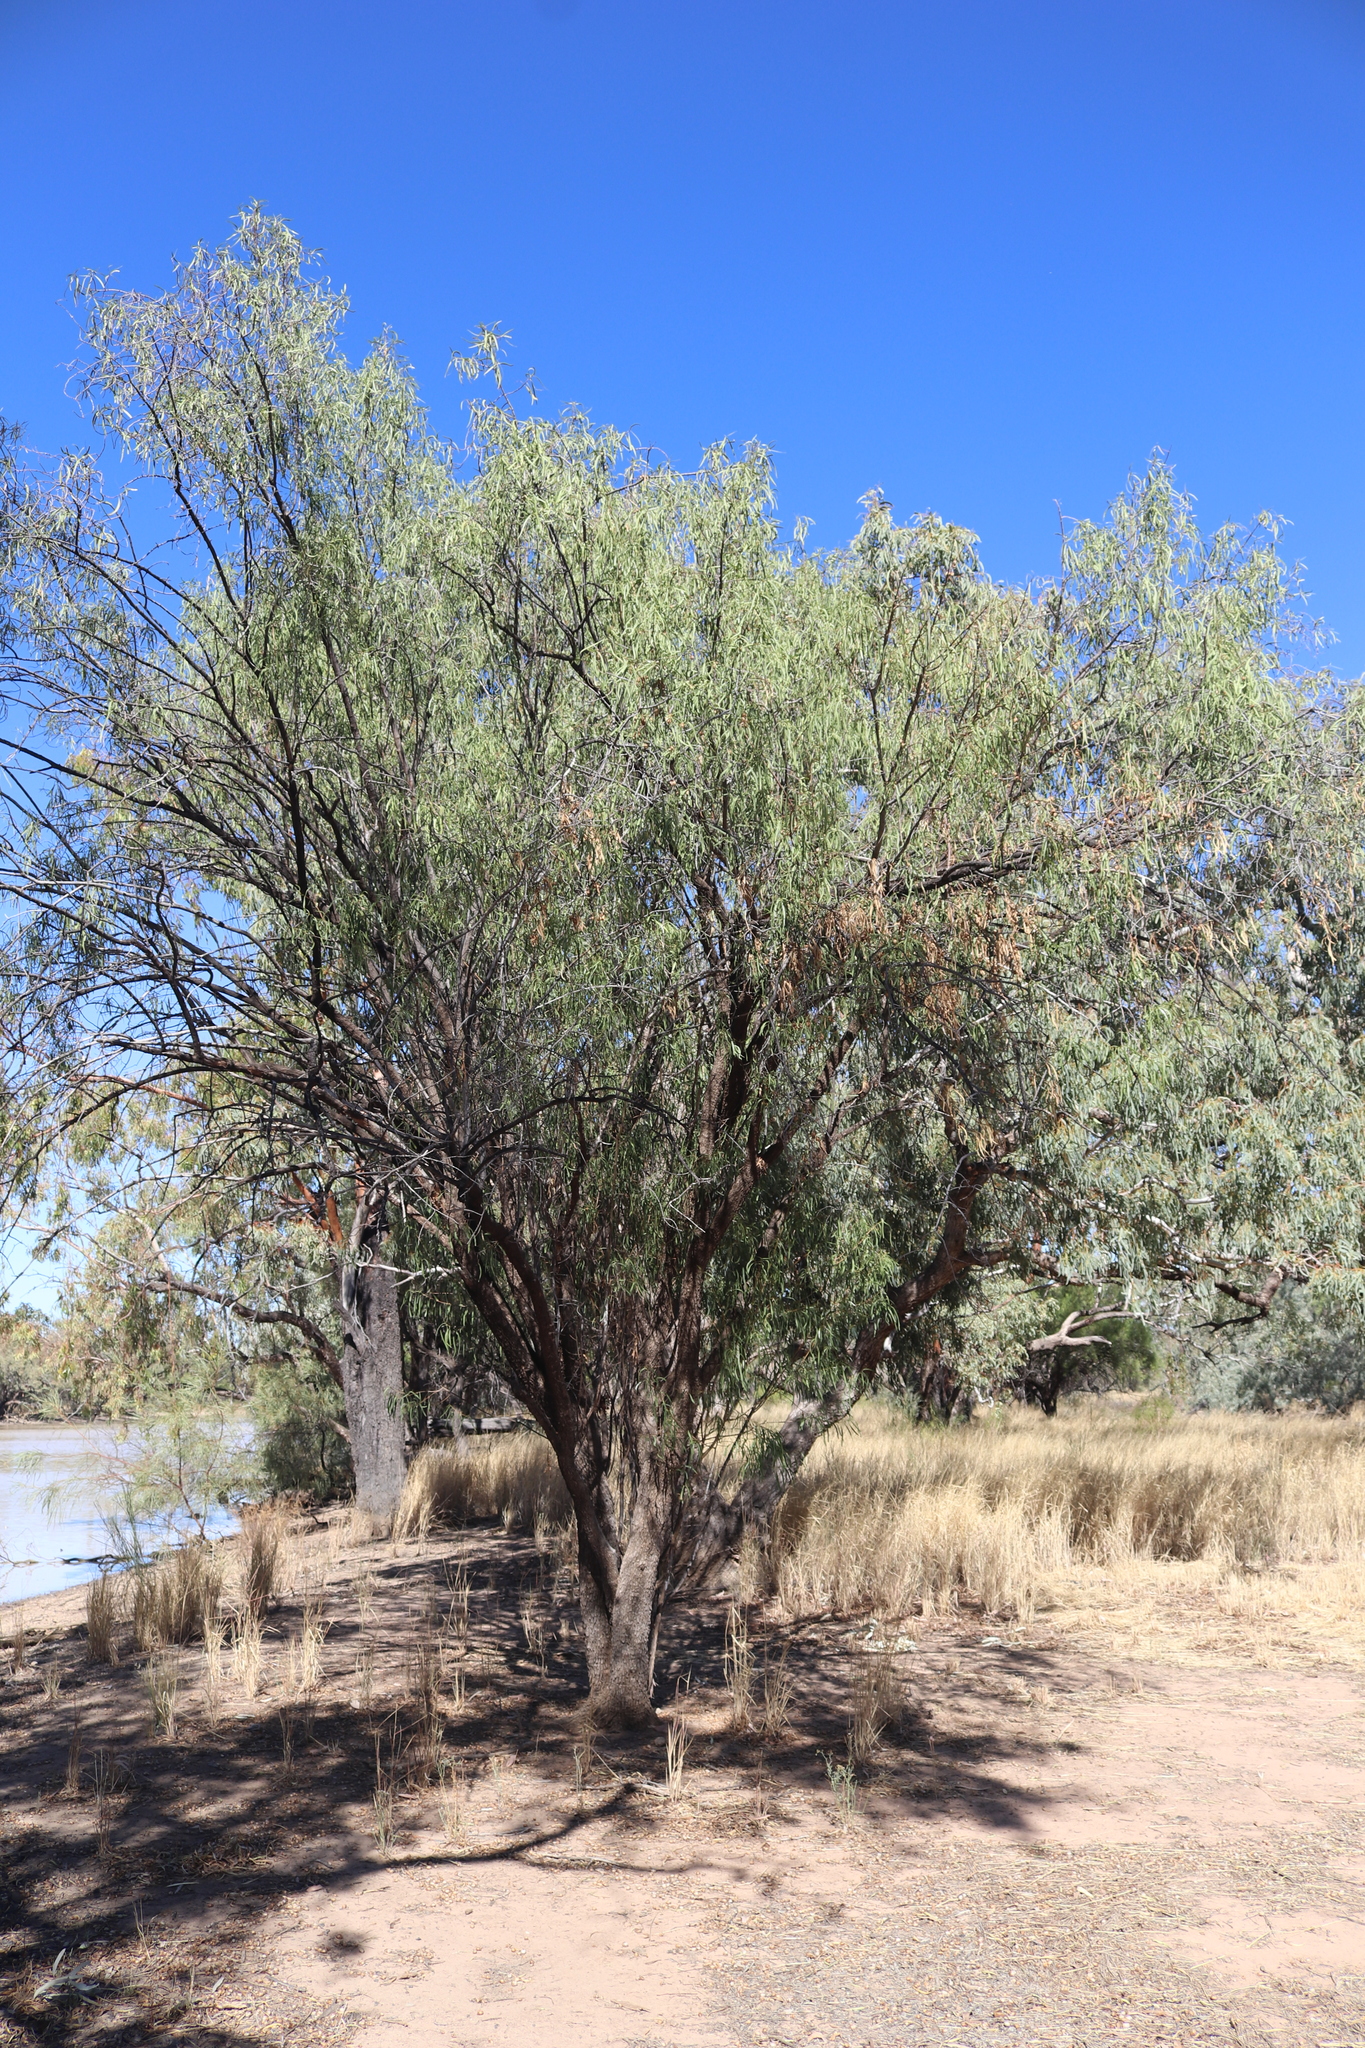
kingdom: Plantae
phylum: Tracheophyta
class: Magnoliopsida
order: Lamiales
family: Scrophulariaceae
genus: Eremophila
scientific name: Eremophila longifolia
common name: Longleaf emubush
